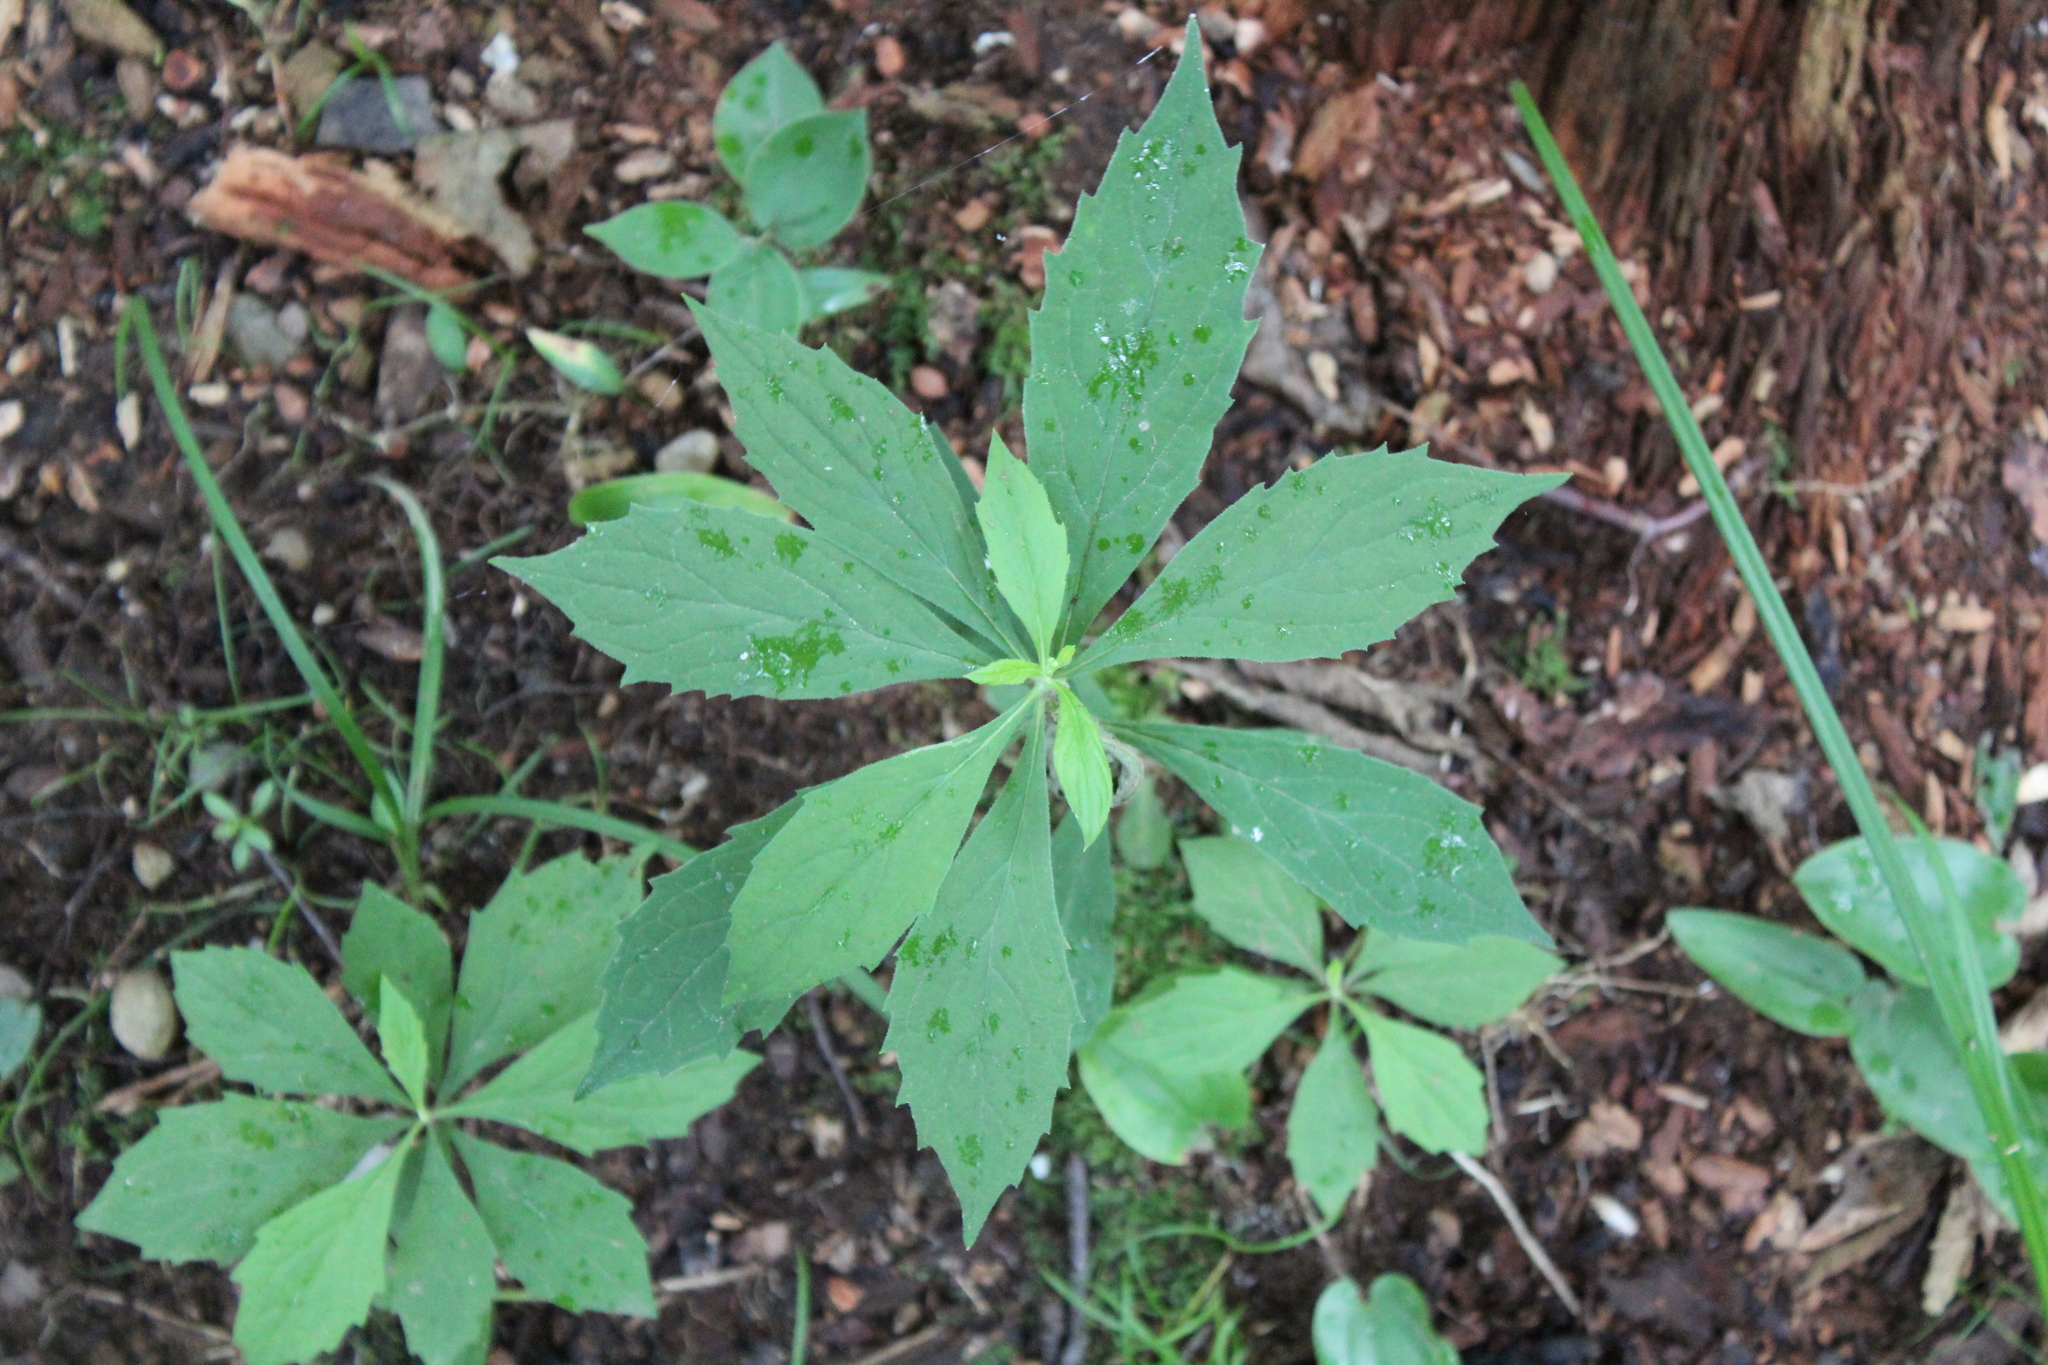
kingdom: Plantae
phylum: Tracheophyta
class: Magnoliopsida
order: Asterales
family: Asteraceae
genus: Oclemena
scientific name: Oclemena acuminata
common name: Mountain aster
